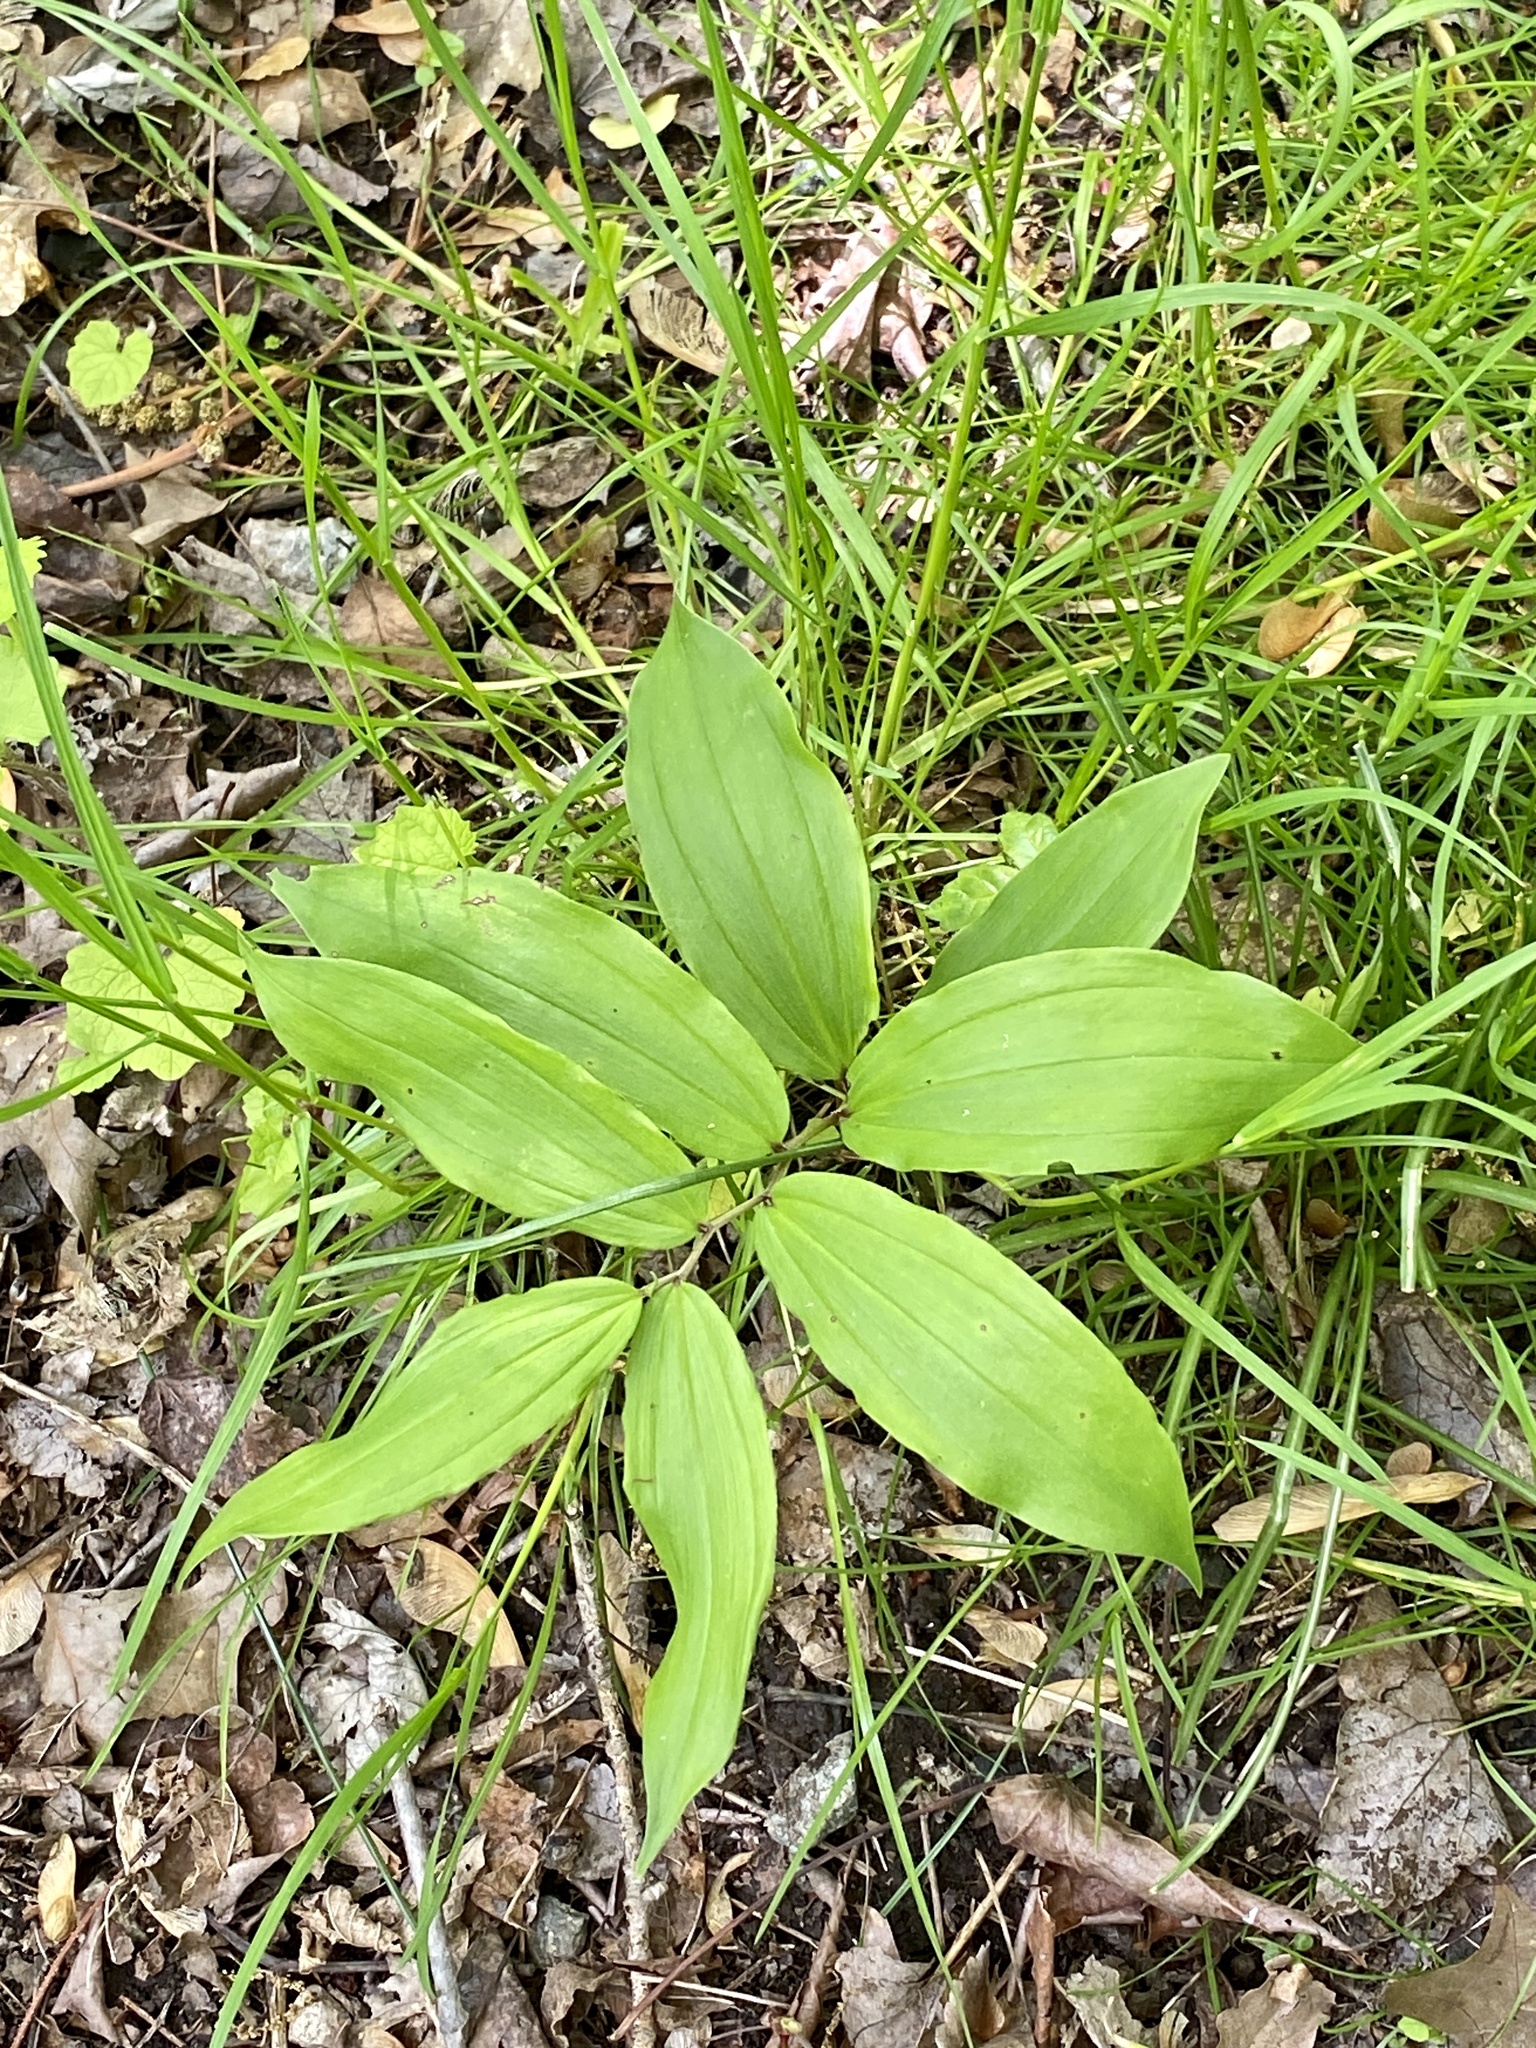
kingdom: Plantae
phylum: Tracheophyta
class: Liliopsida
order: Asparagales
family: Asparagaceae
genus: Maianthemum
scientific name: Maianthemum racemosum
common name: False spikenard
